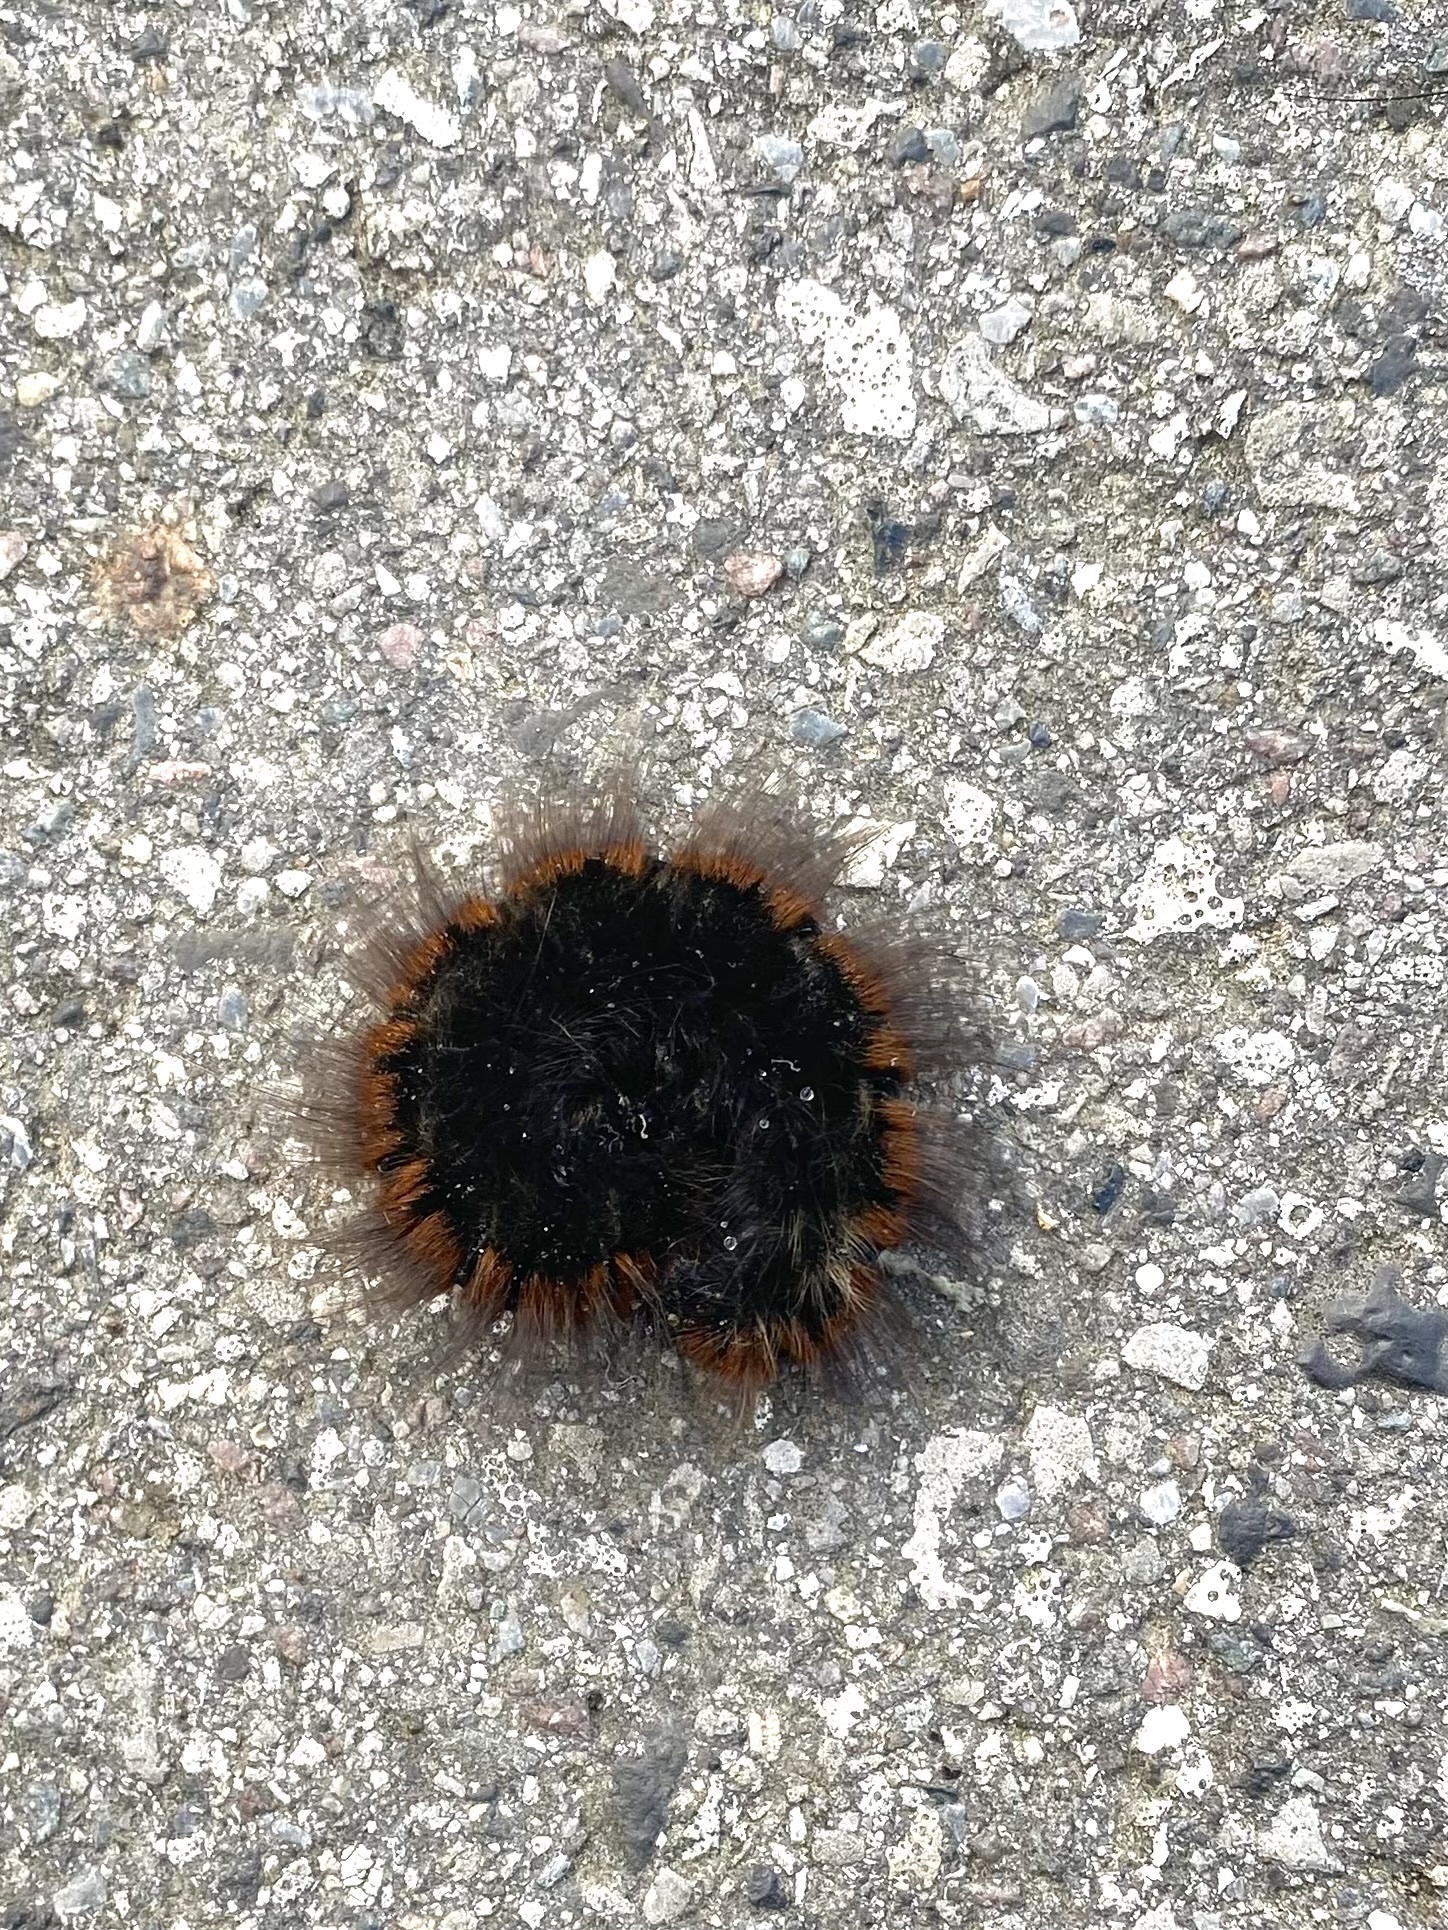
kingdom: Animalia
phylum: Arthropoda
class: Insecta
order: Lepidoptera
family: Lasiocampidae
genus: Macrothylacia
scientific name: Macrothylacia rubi
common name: Fox moth
